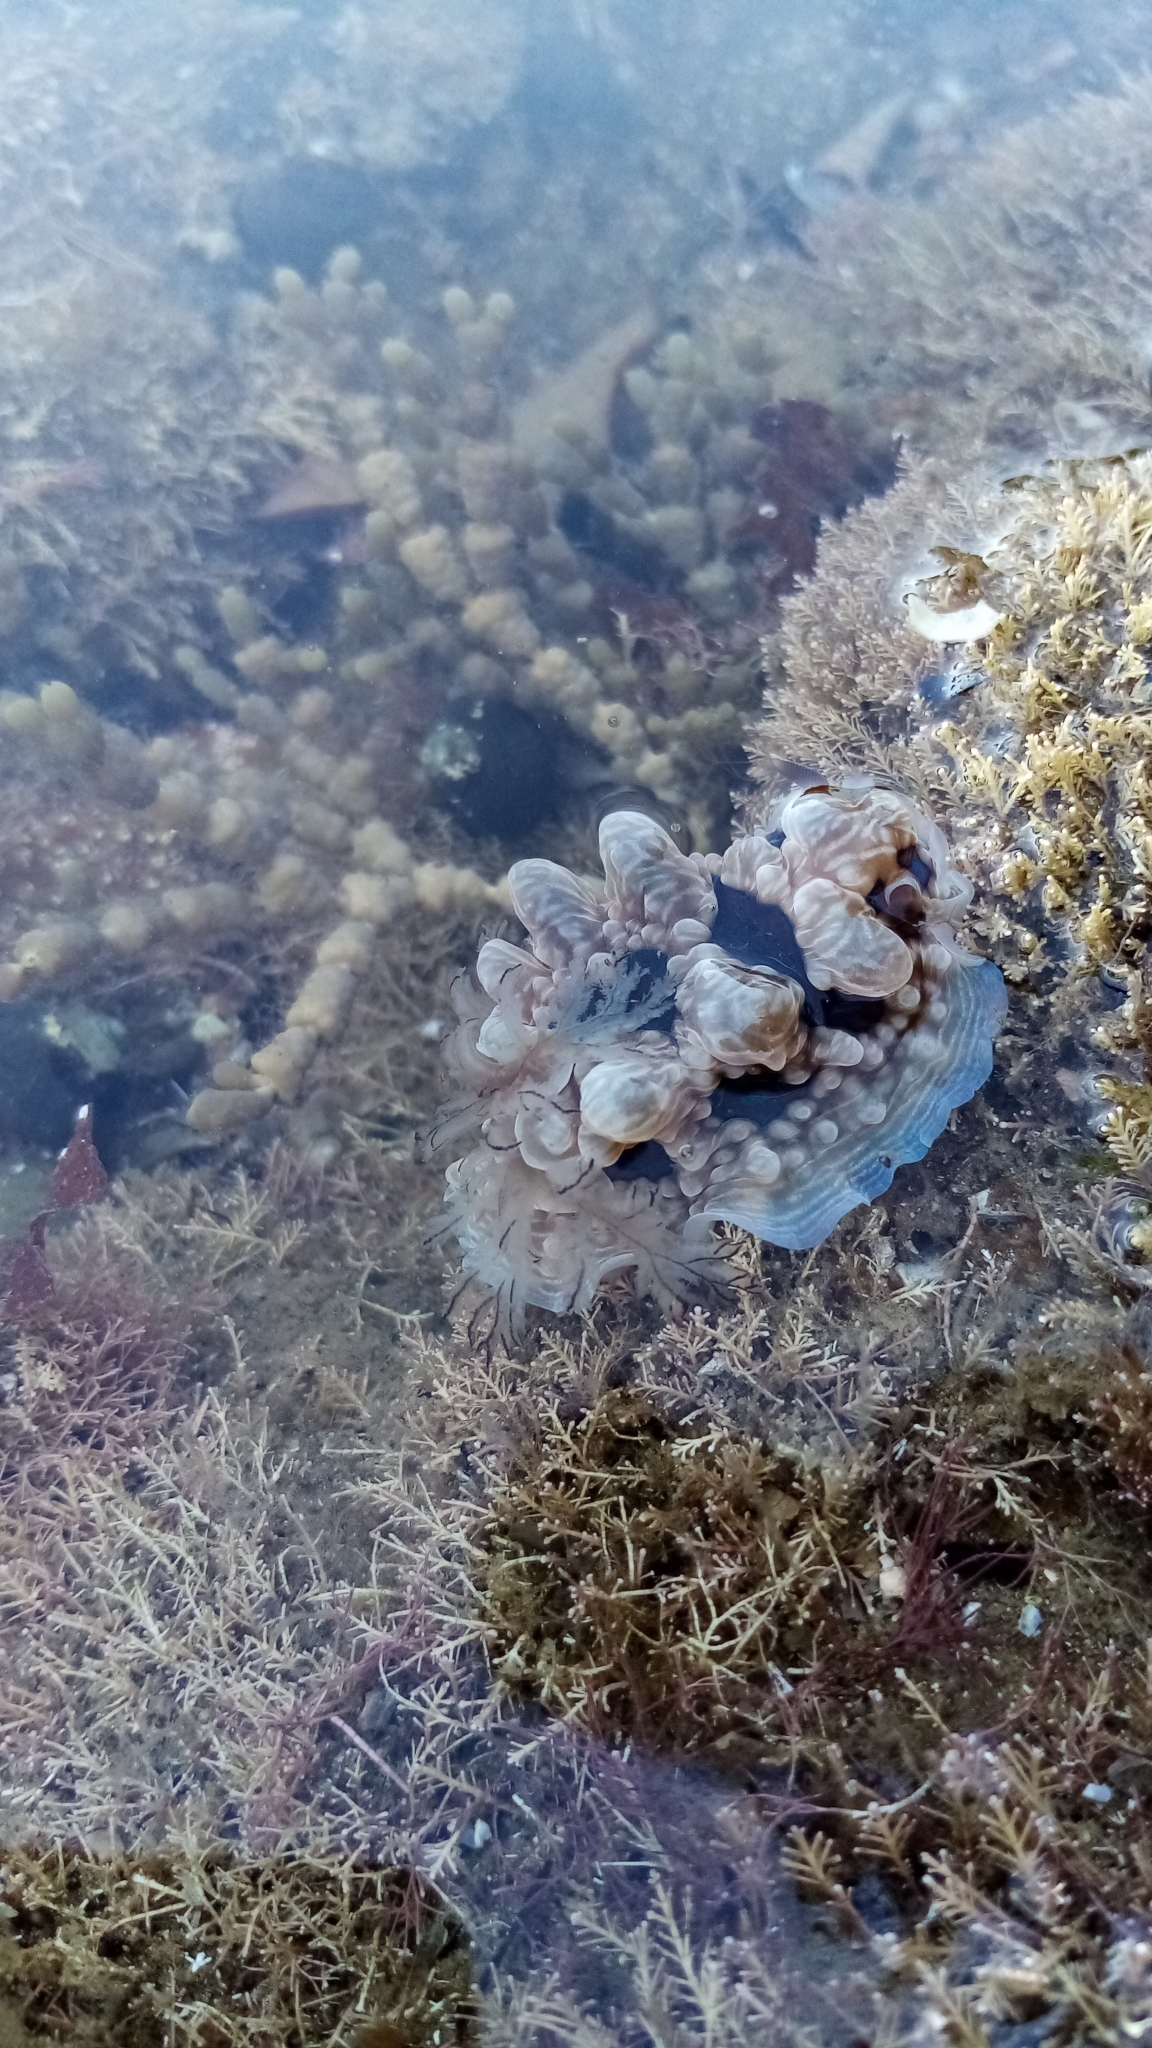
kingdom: Animalia
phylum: Mollusca
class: Gastropoda
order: Nudibranchia
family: Dendrodorididae
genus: Dendrodoris
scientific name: Dendrodoris krusensternii
